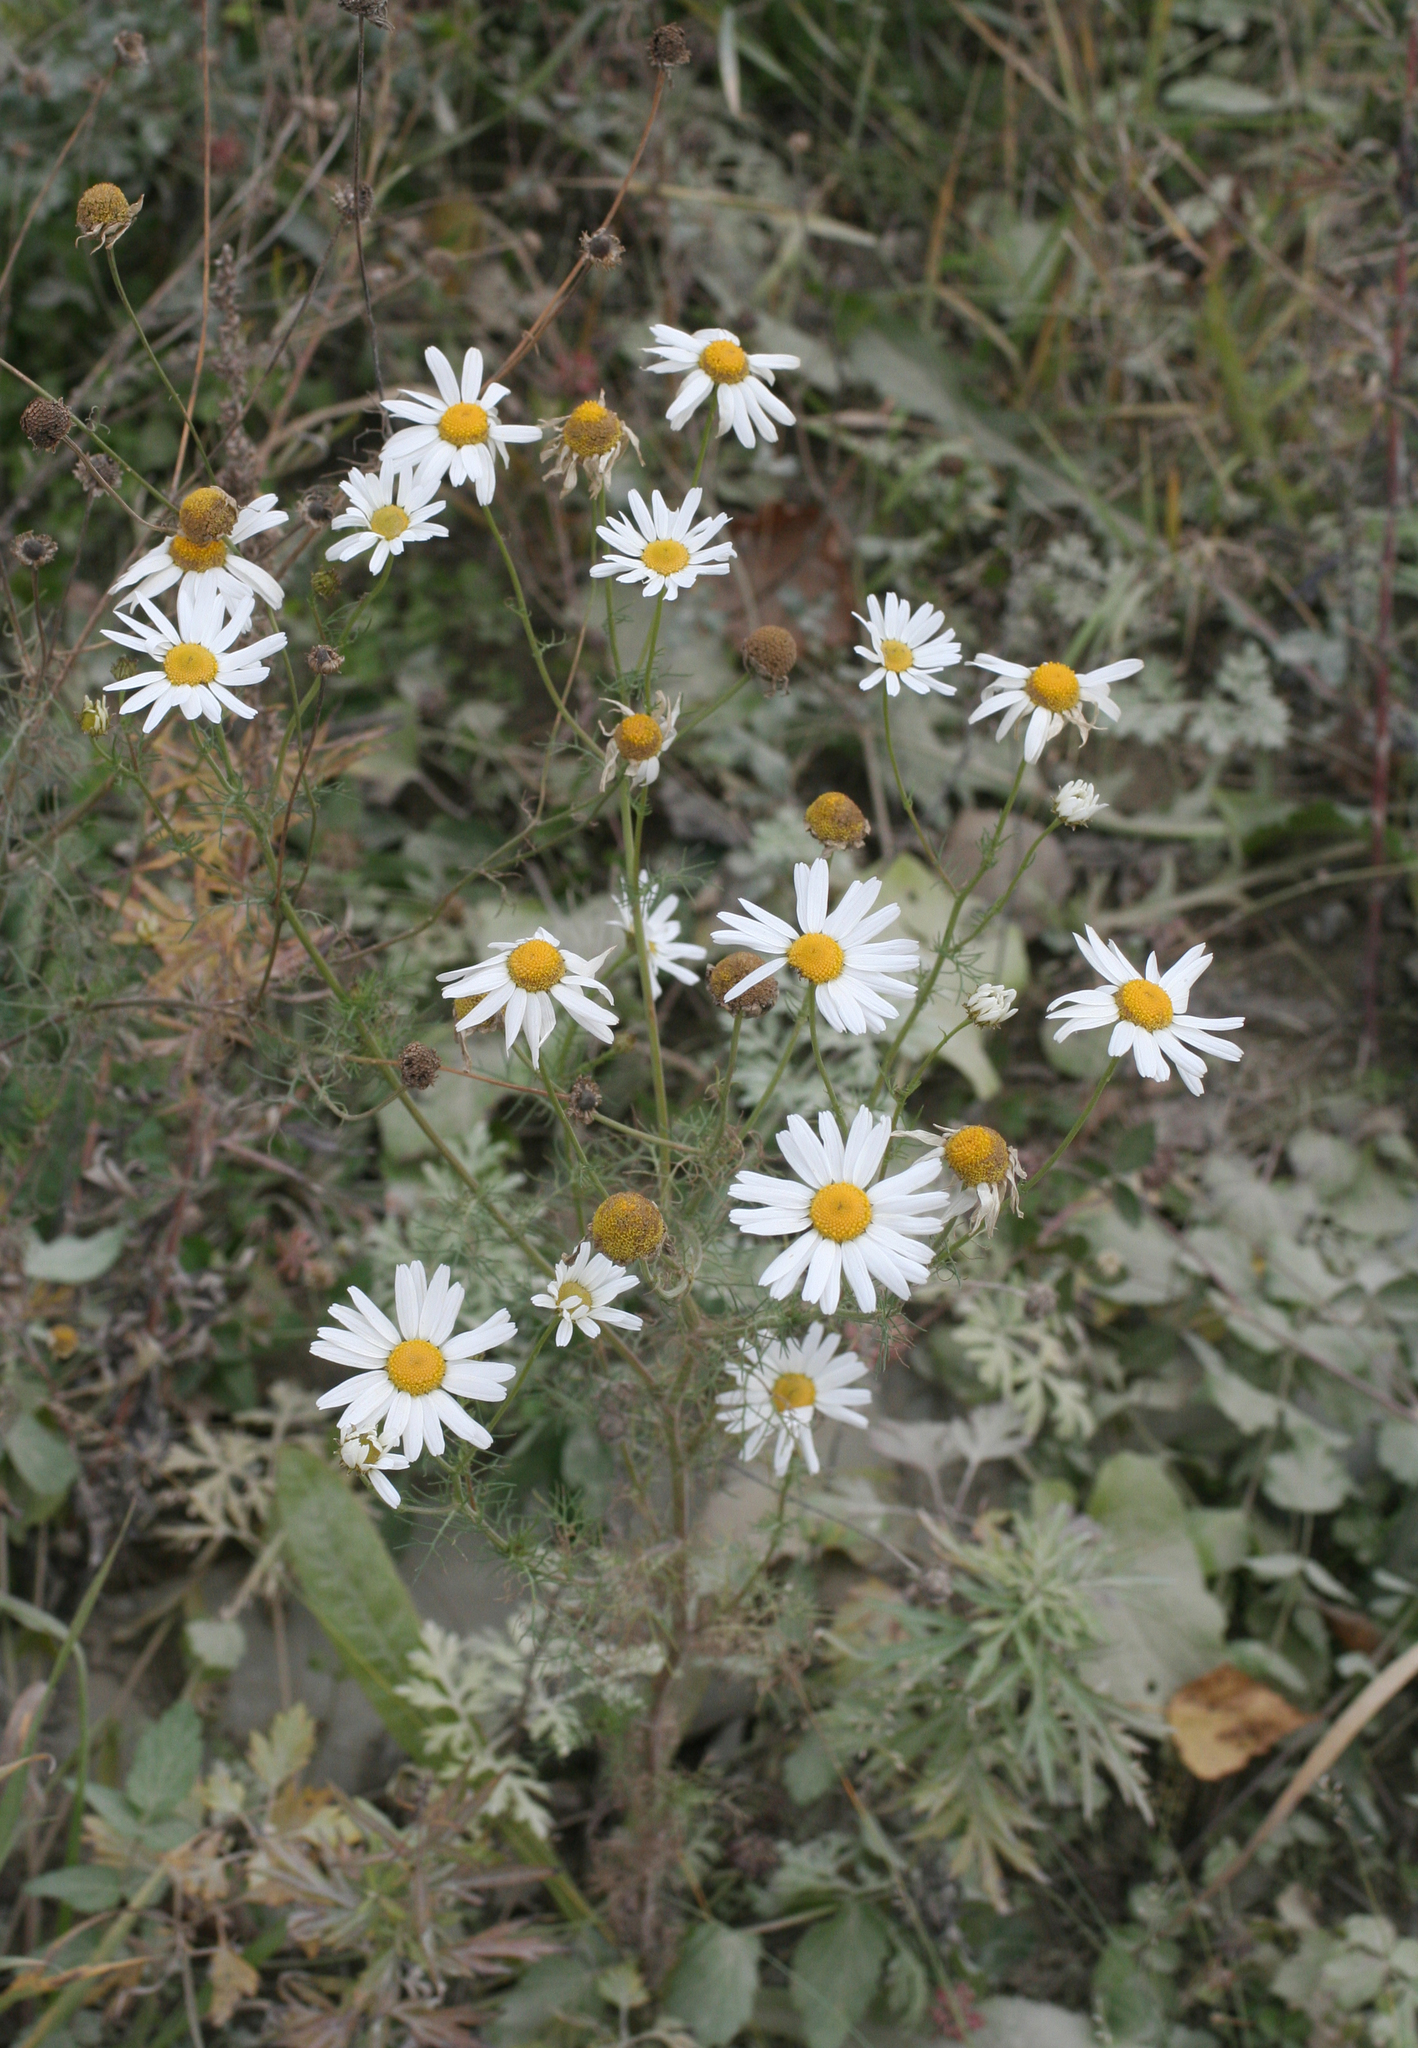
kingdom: Plantae
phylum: Tracheophyta
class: Magnoliopsida
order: Asterales
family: Asteraceae
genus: Tripleurospermum
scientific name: Tripleurospermum inodorum
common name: Scentless mayweed
